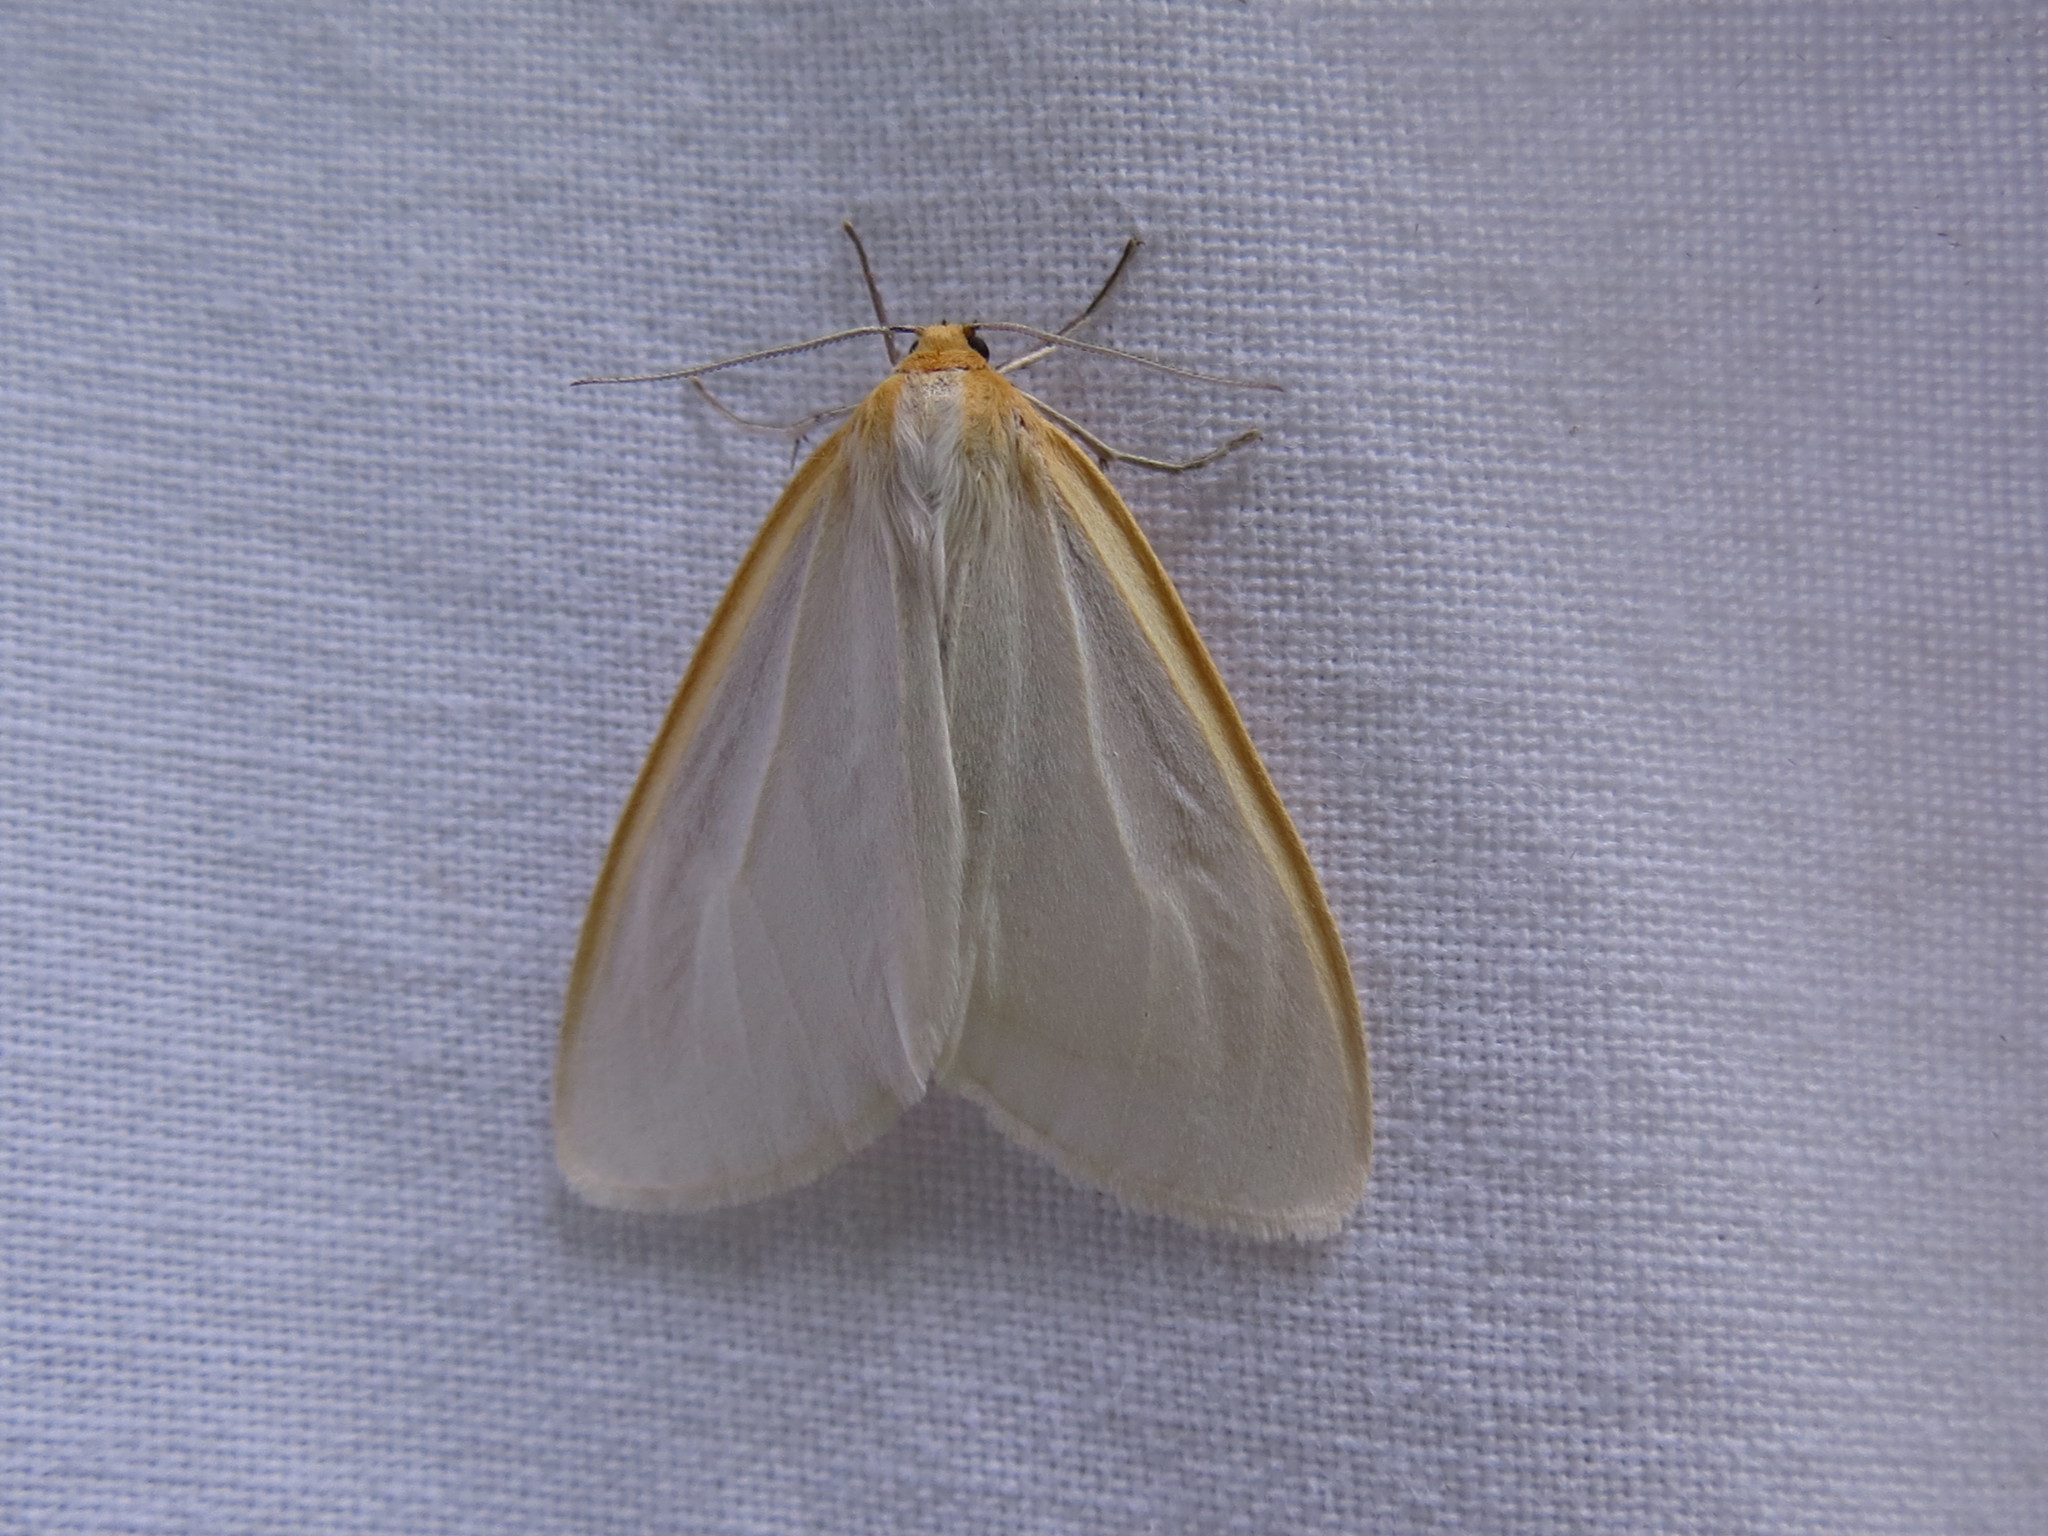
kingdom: Animalia
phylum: Arthropoda
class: Insecta
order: Lepidoptera
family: Erebidae
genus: Cycnia
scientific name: Cycnia tenera
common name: Delicate cycnia moth
